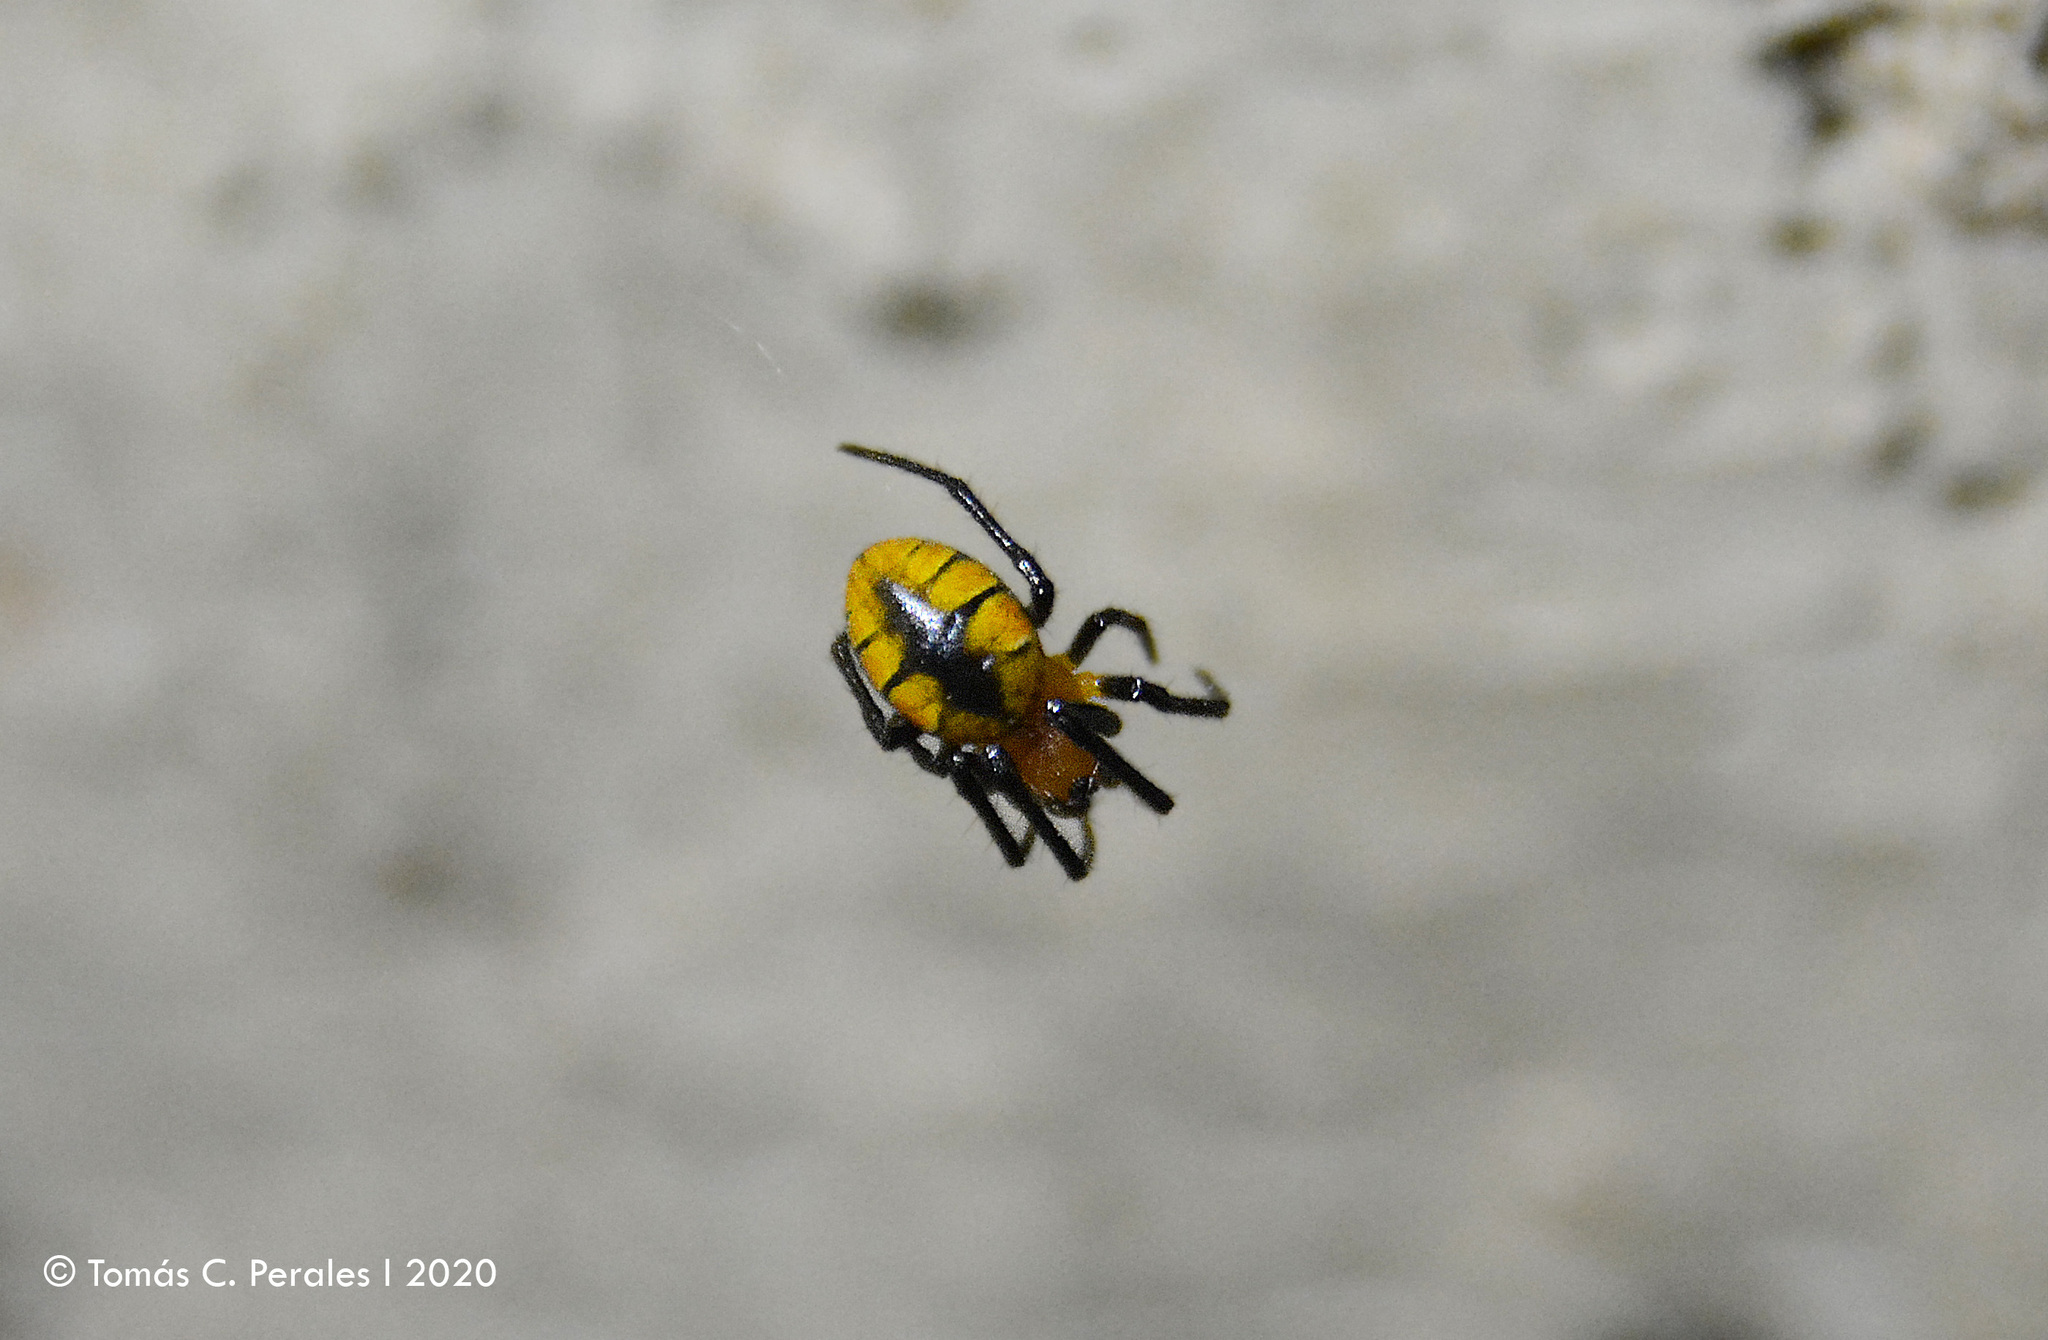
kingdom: Animalia
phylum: Arthropoda
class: Arachnida
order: Araneae
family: Araneidae
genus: Alpaida
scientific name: Alpaida latro
